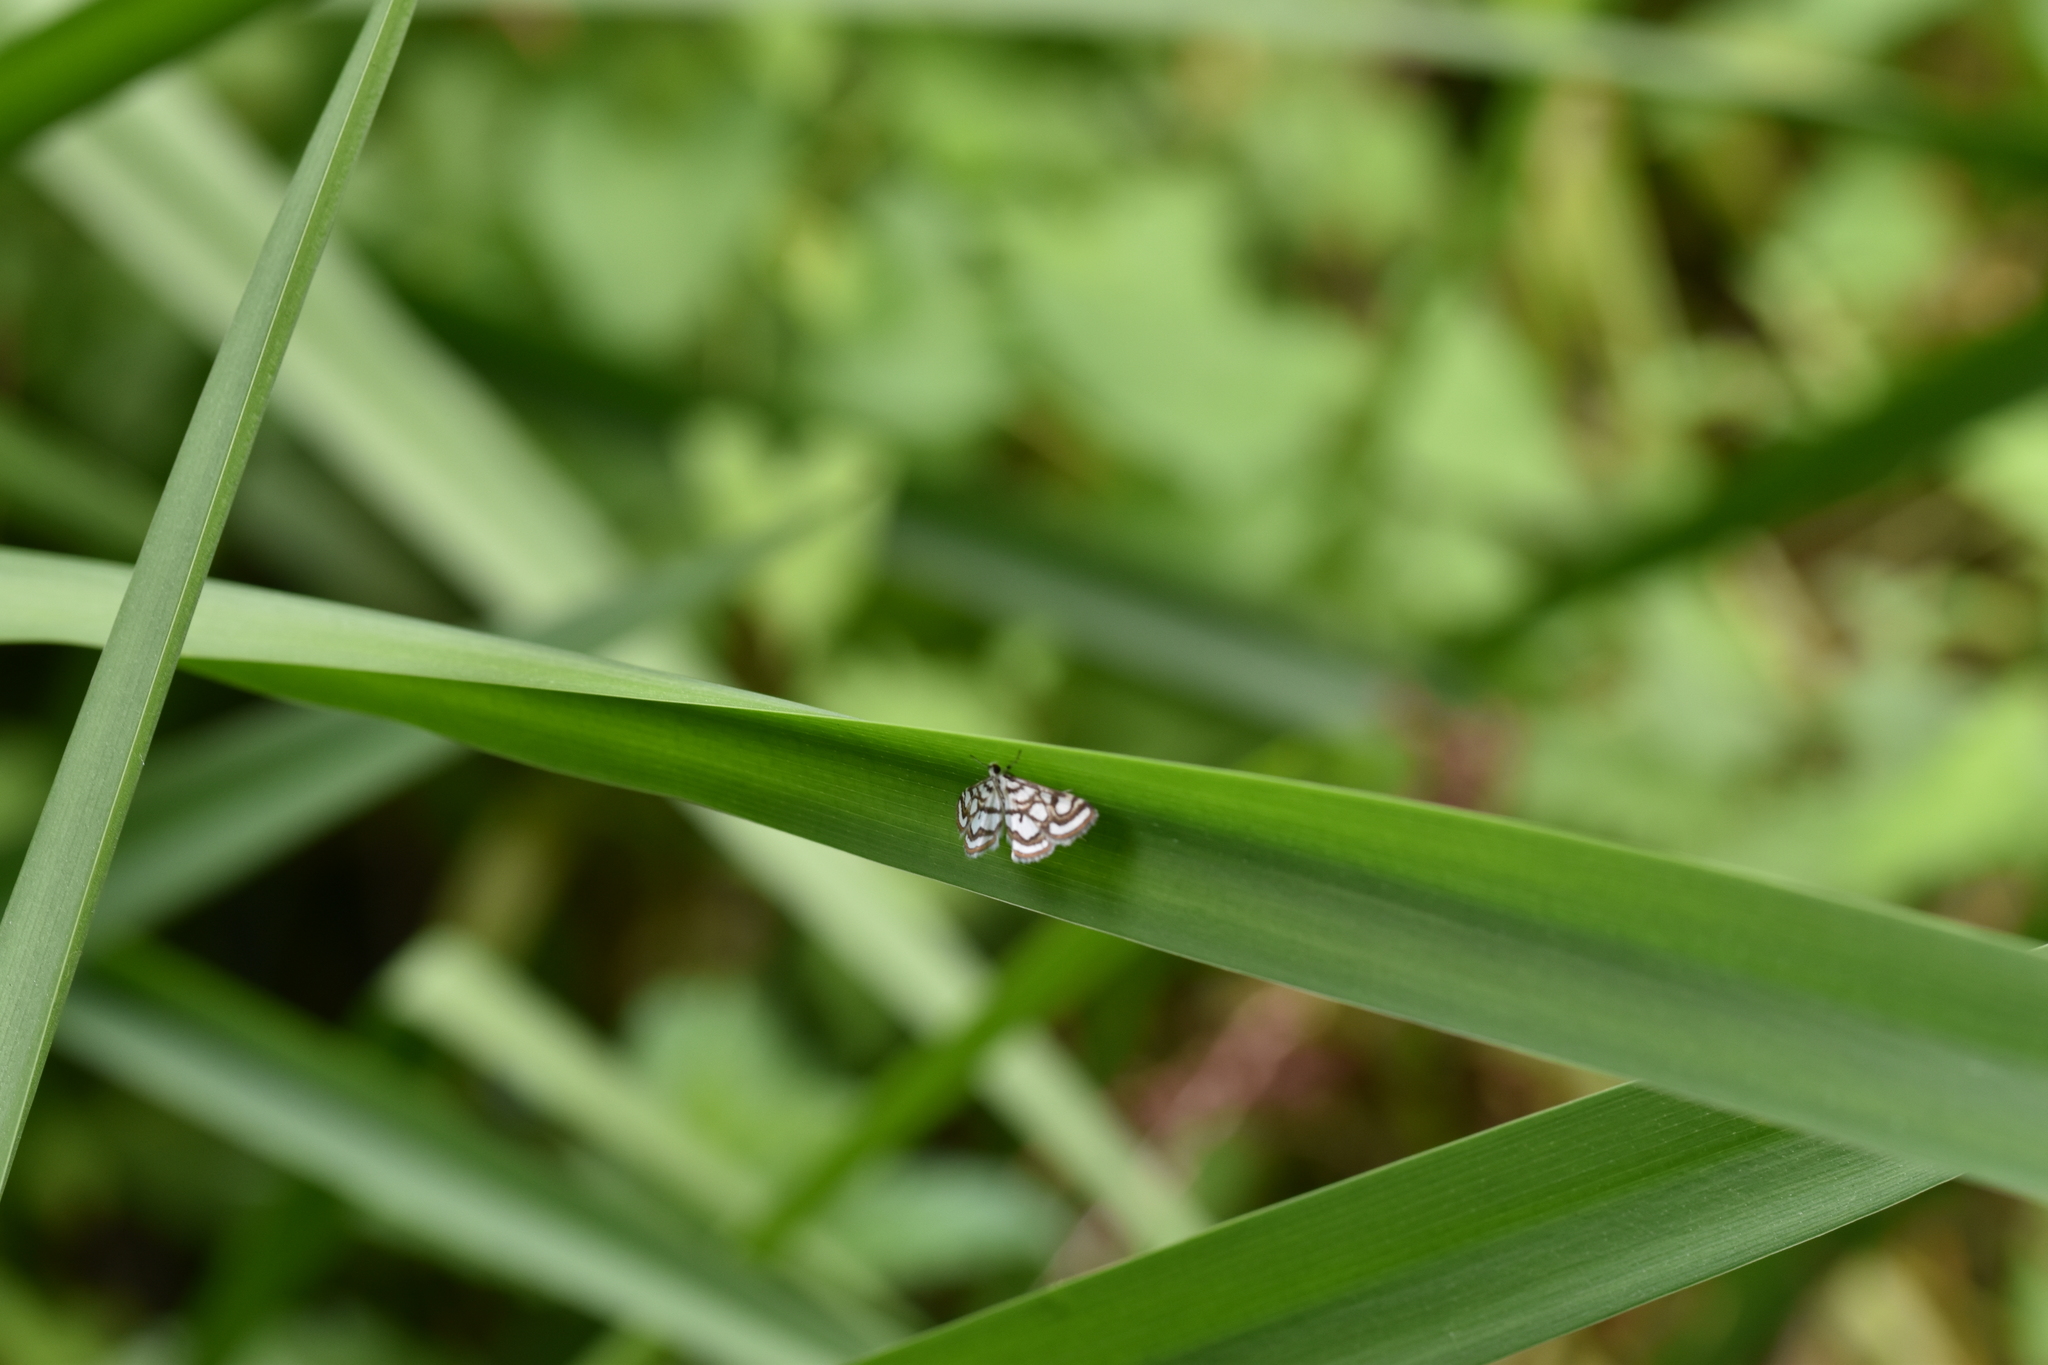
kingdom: Animalia
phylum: Arthropoda
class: Insecta
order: Lepidoptera
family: Crambidae
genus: Nymphula
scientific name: Nymphula nitidulata
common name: Beautiful china mark
